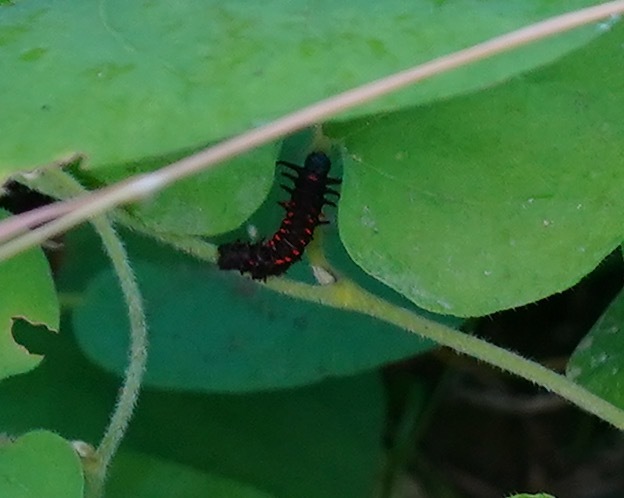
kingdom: Animalia
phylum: Arthropoda
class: Insecta
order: Lepidoptera
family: Papilionidae
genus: Battus
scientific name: Battus philenor
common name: Pipevine swallowtail
